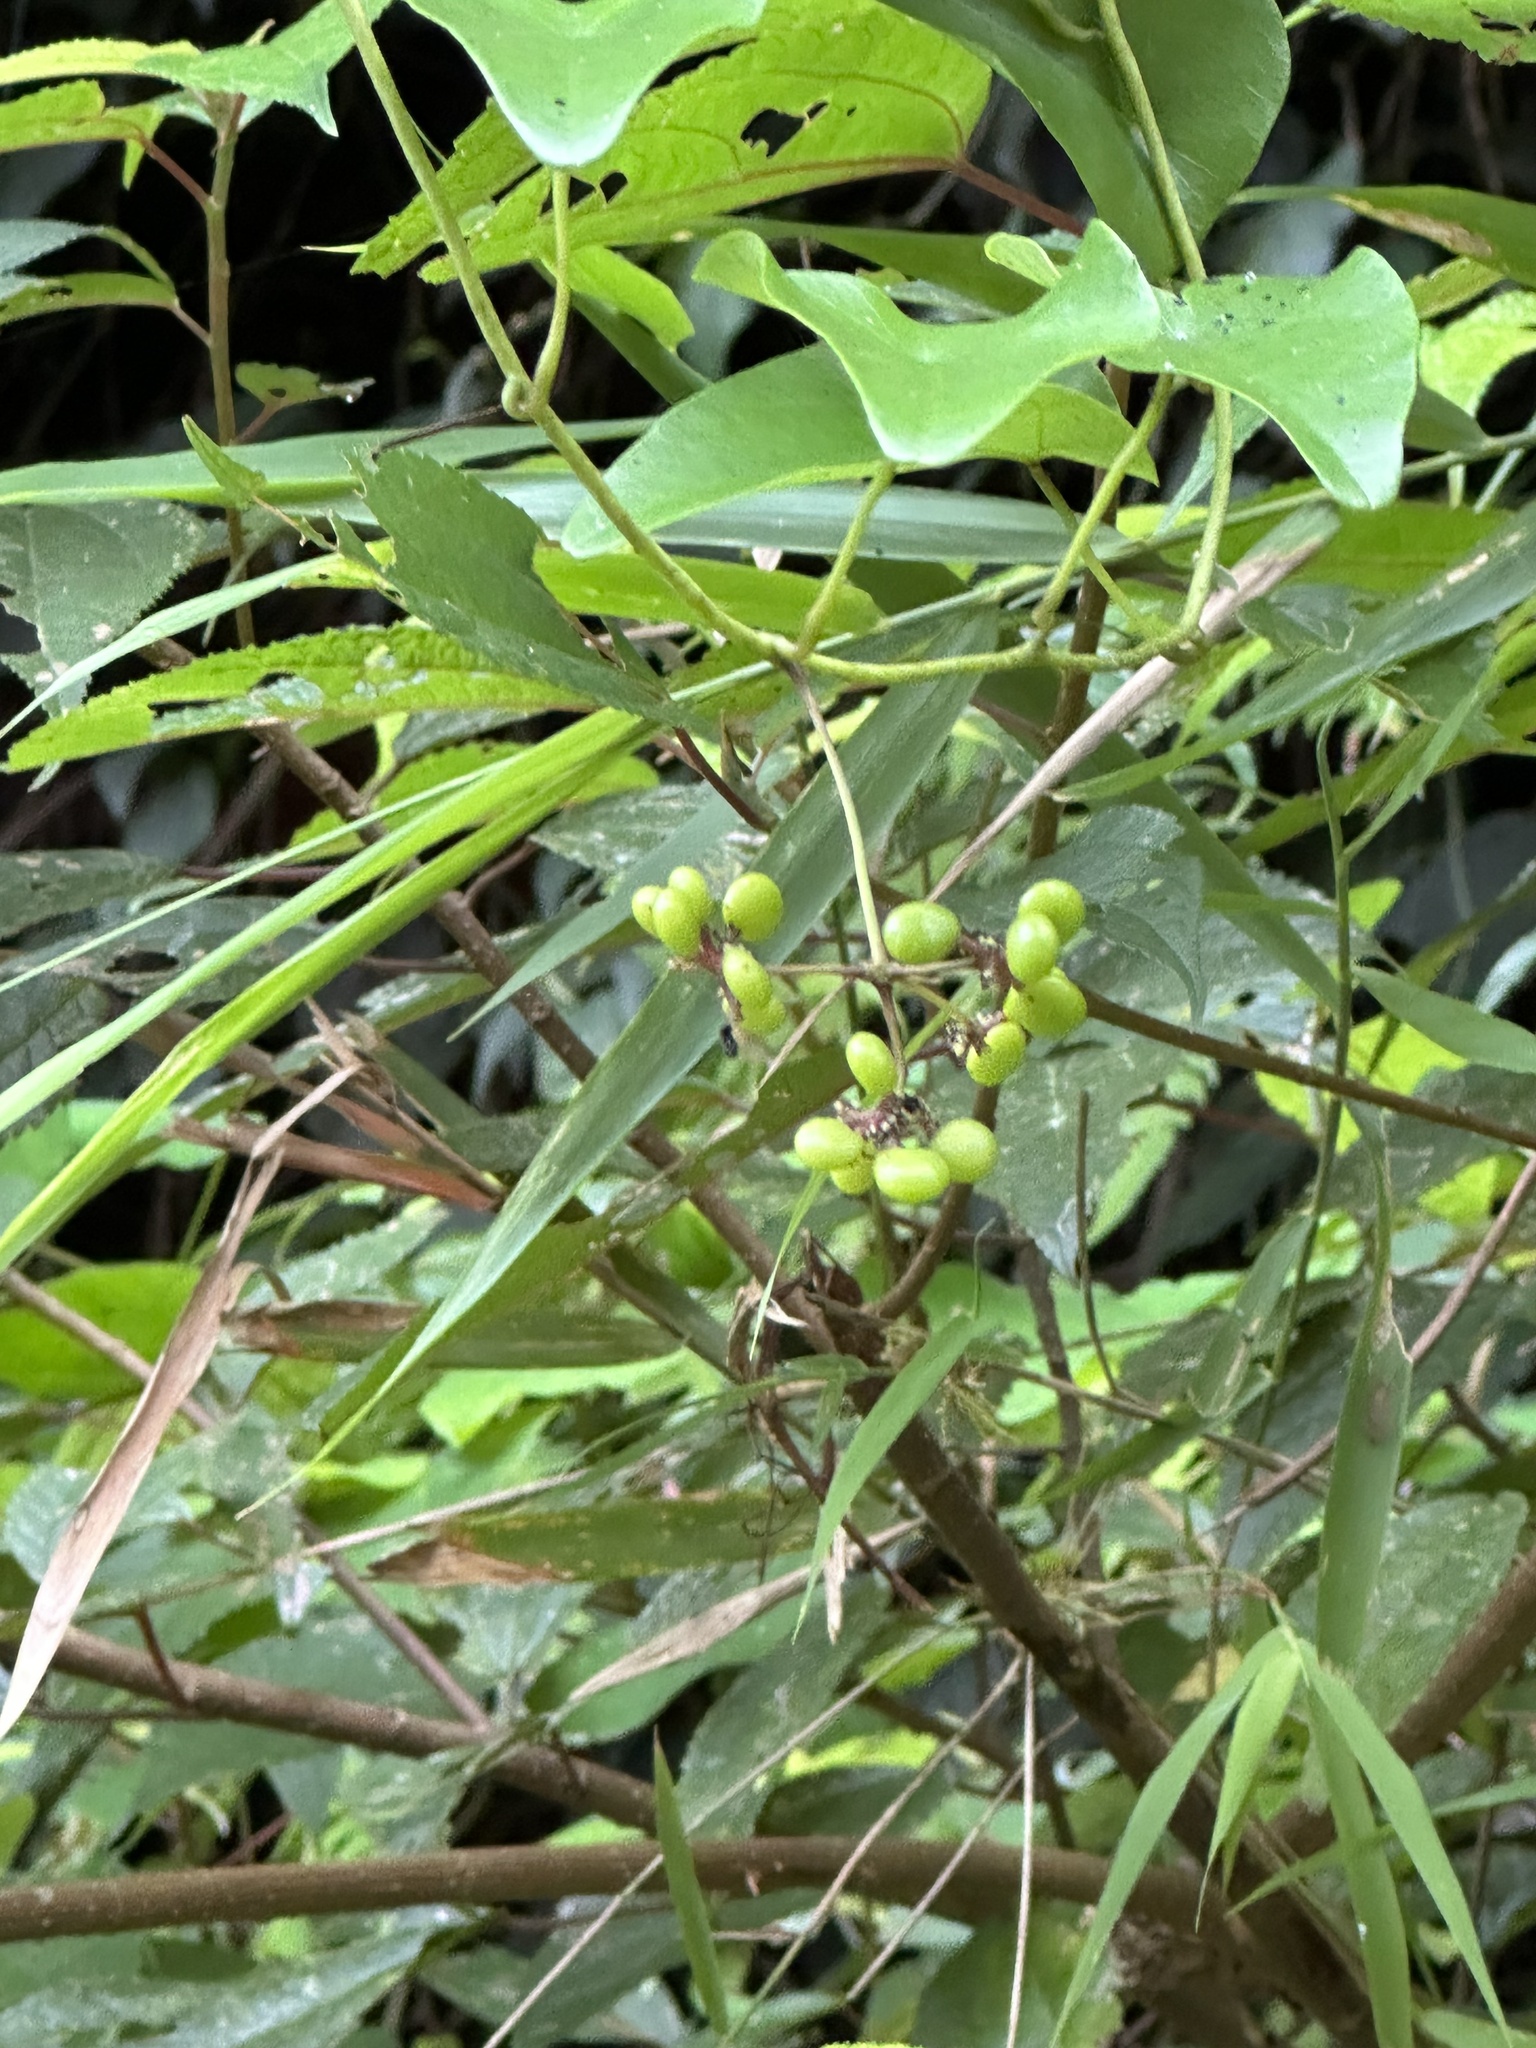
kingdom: Plantae
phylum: Tracheophyta
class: Magnoliopsida
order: Ranunculales
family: Menispermaceae
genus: Stephania
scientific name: Stephania japonica
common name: Snake vine
